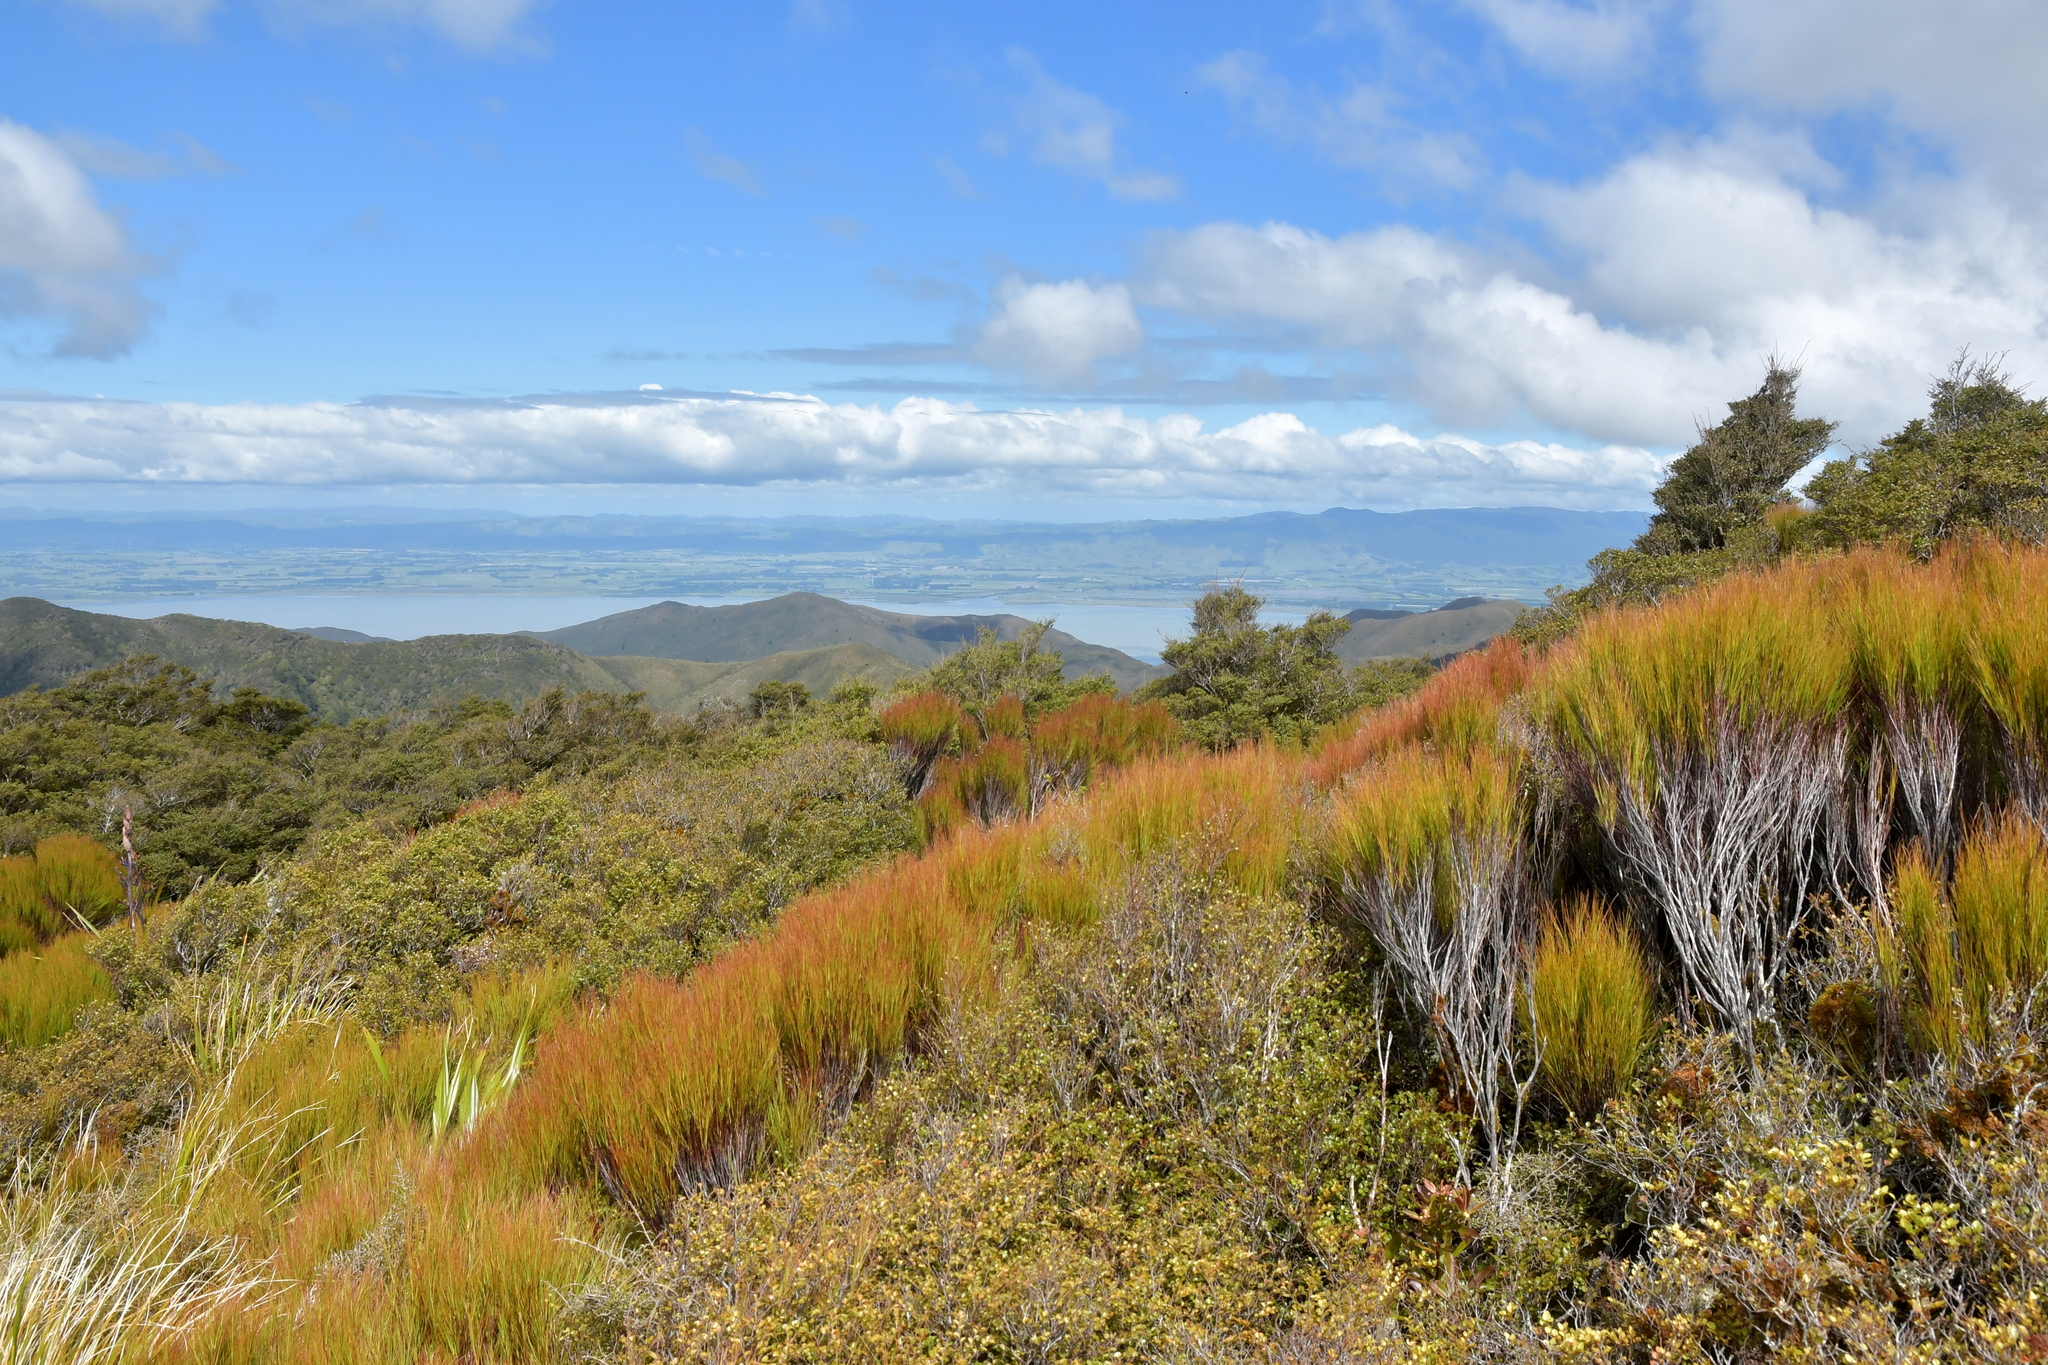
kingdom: Plantae
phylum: Tracheophyta
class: Magnoliopsida
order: Ericales
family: Ericaceae
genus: Dracophyllum
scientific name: Dracophyllum filifolium
